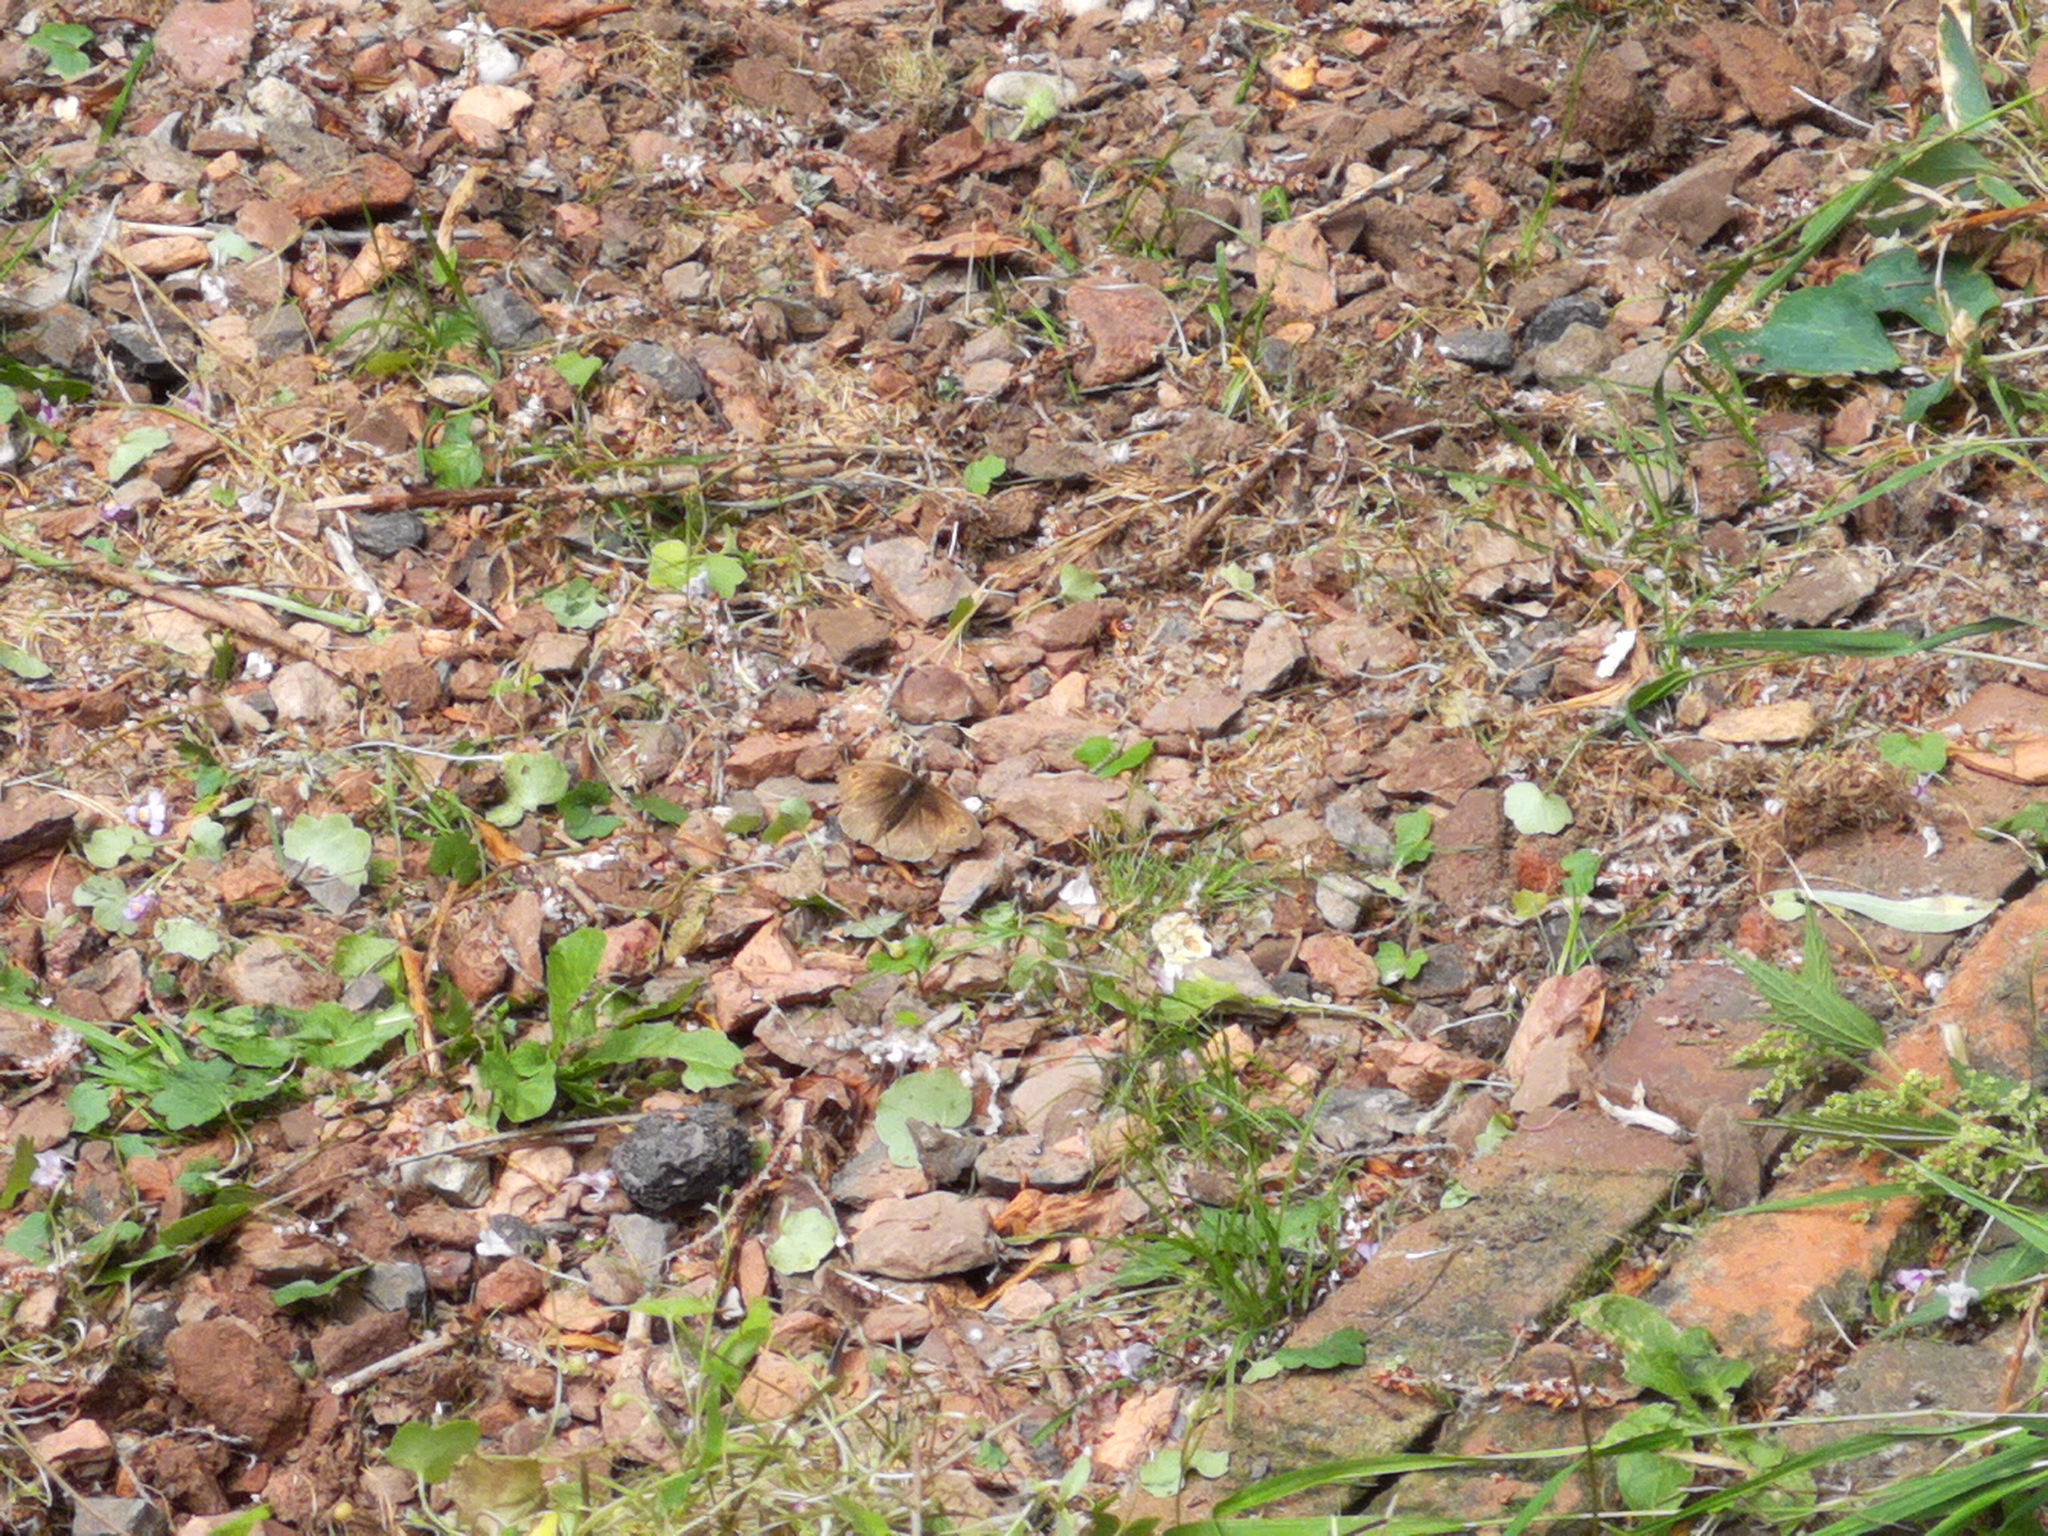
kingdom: Animalia
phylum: Arthropoda
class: Insecta
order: Lepidoptera
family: Nymphalidae
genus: Maniola
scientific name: Maniola jurtina
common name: Meadow brown
